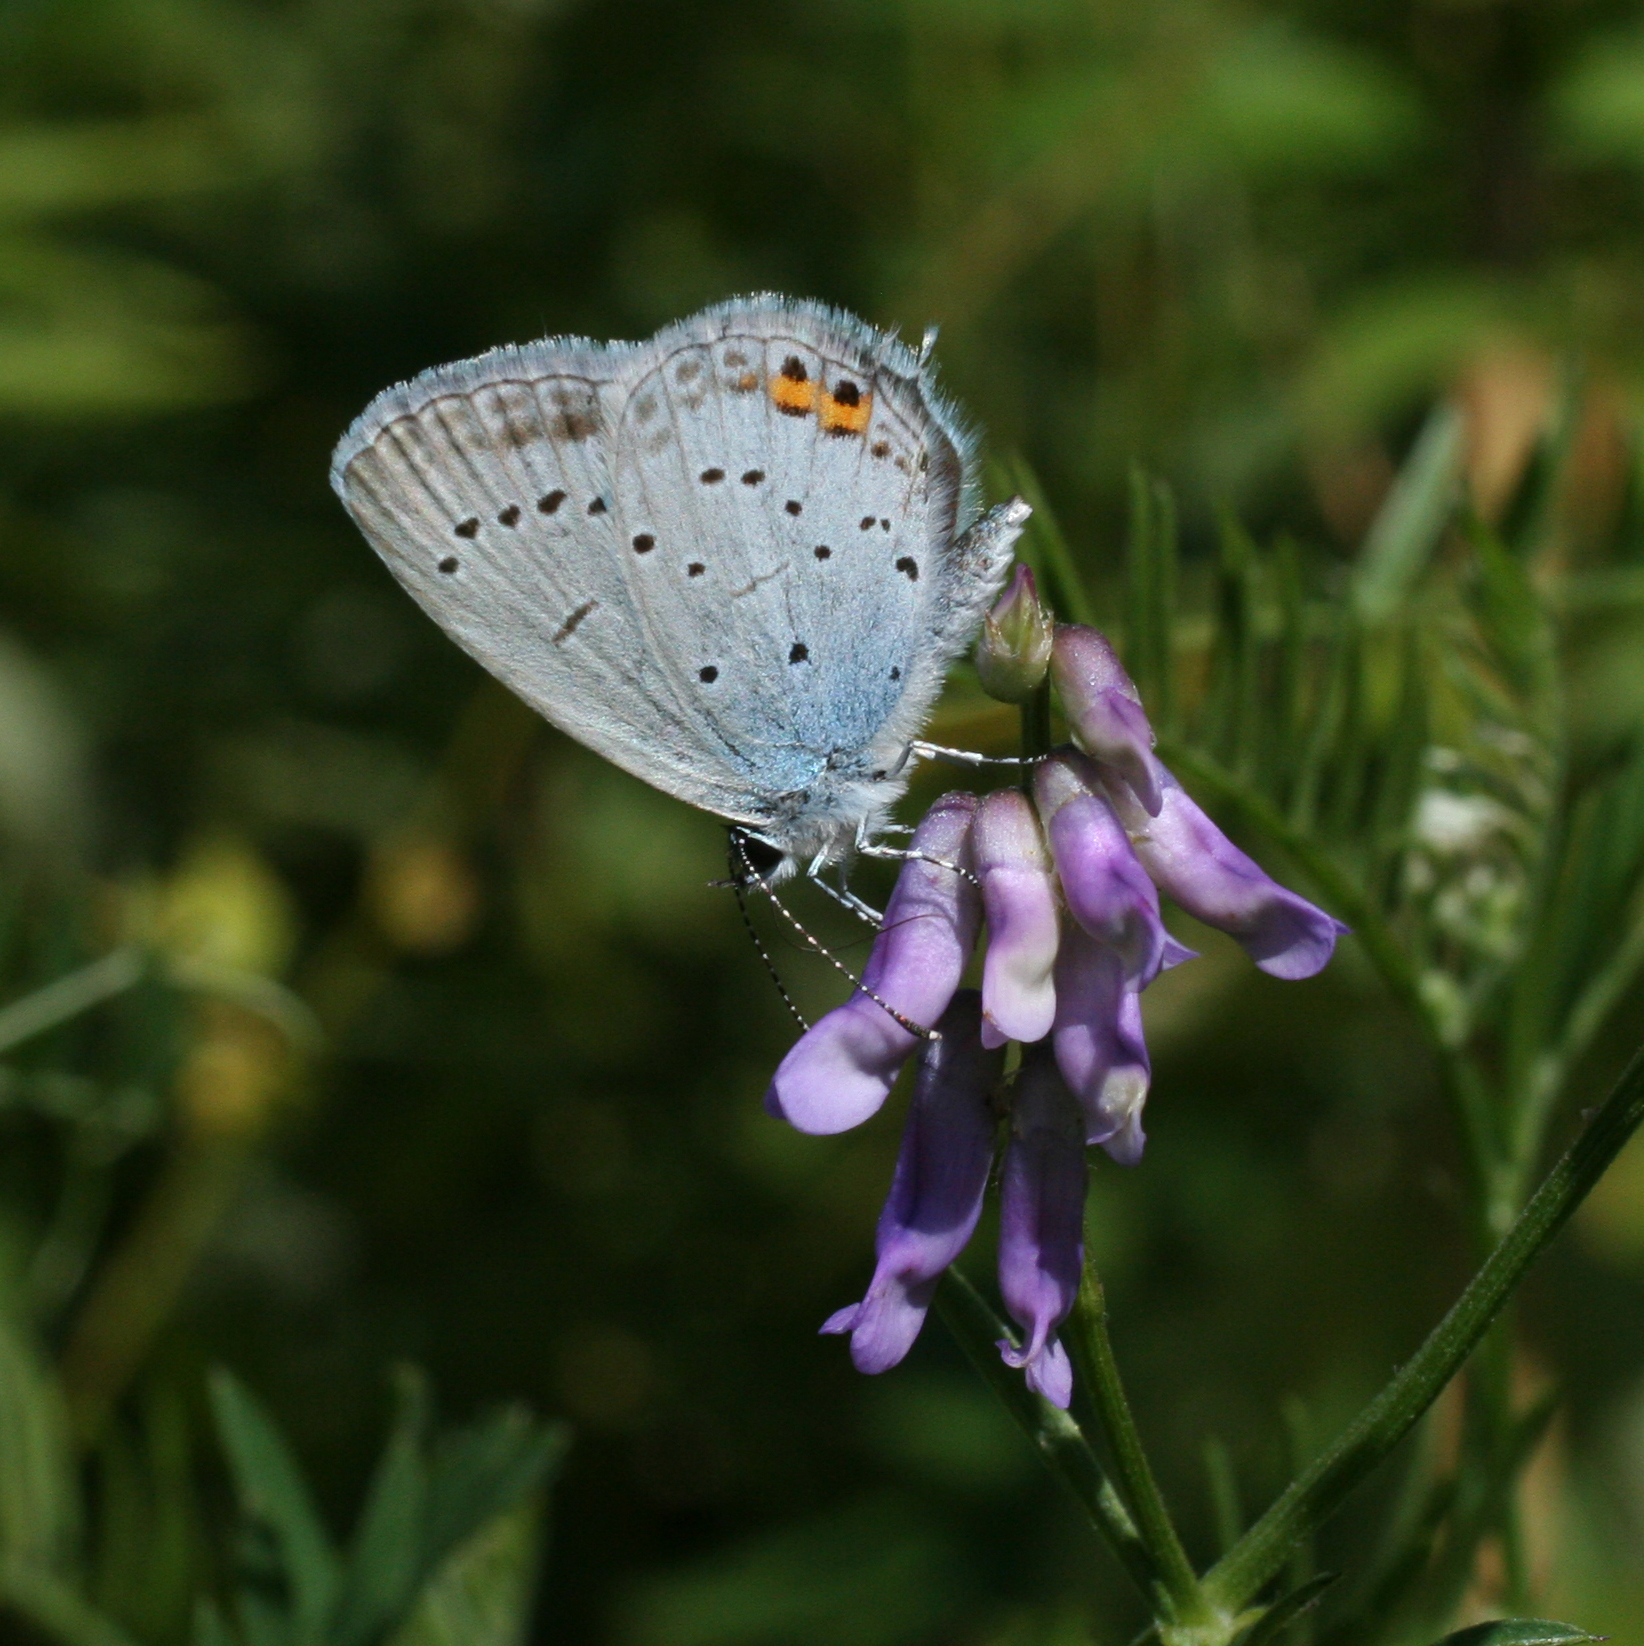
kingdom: Animalia
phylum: Arthropoda
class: Insecta
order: Lepidoptera
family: Lycaenidae
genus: Elkalyce
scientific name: Elkalyce argiades
